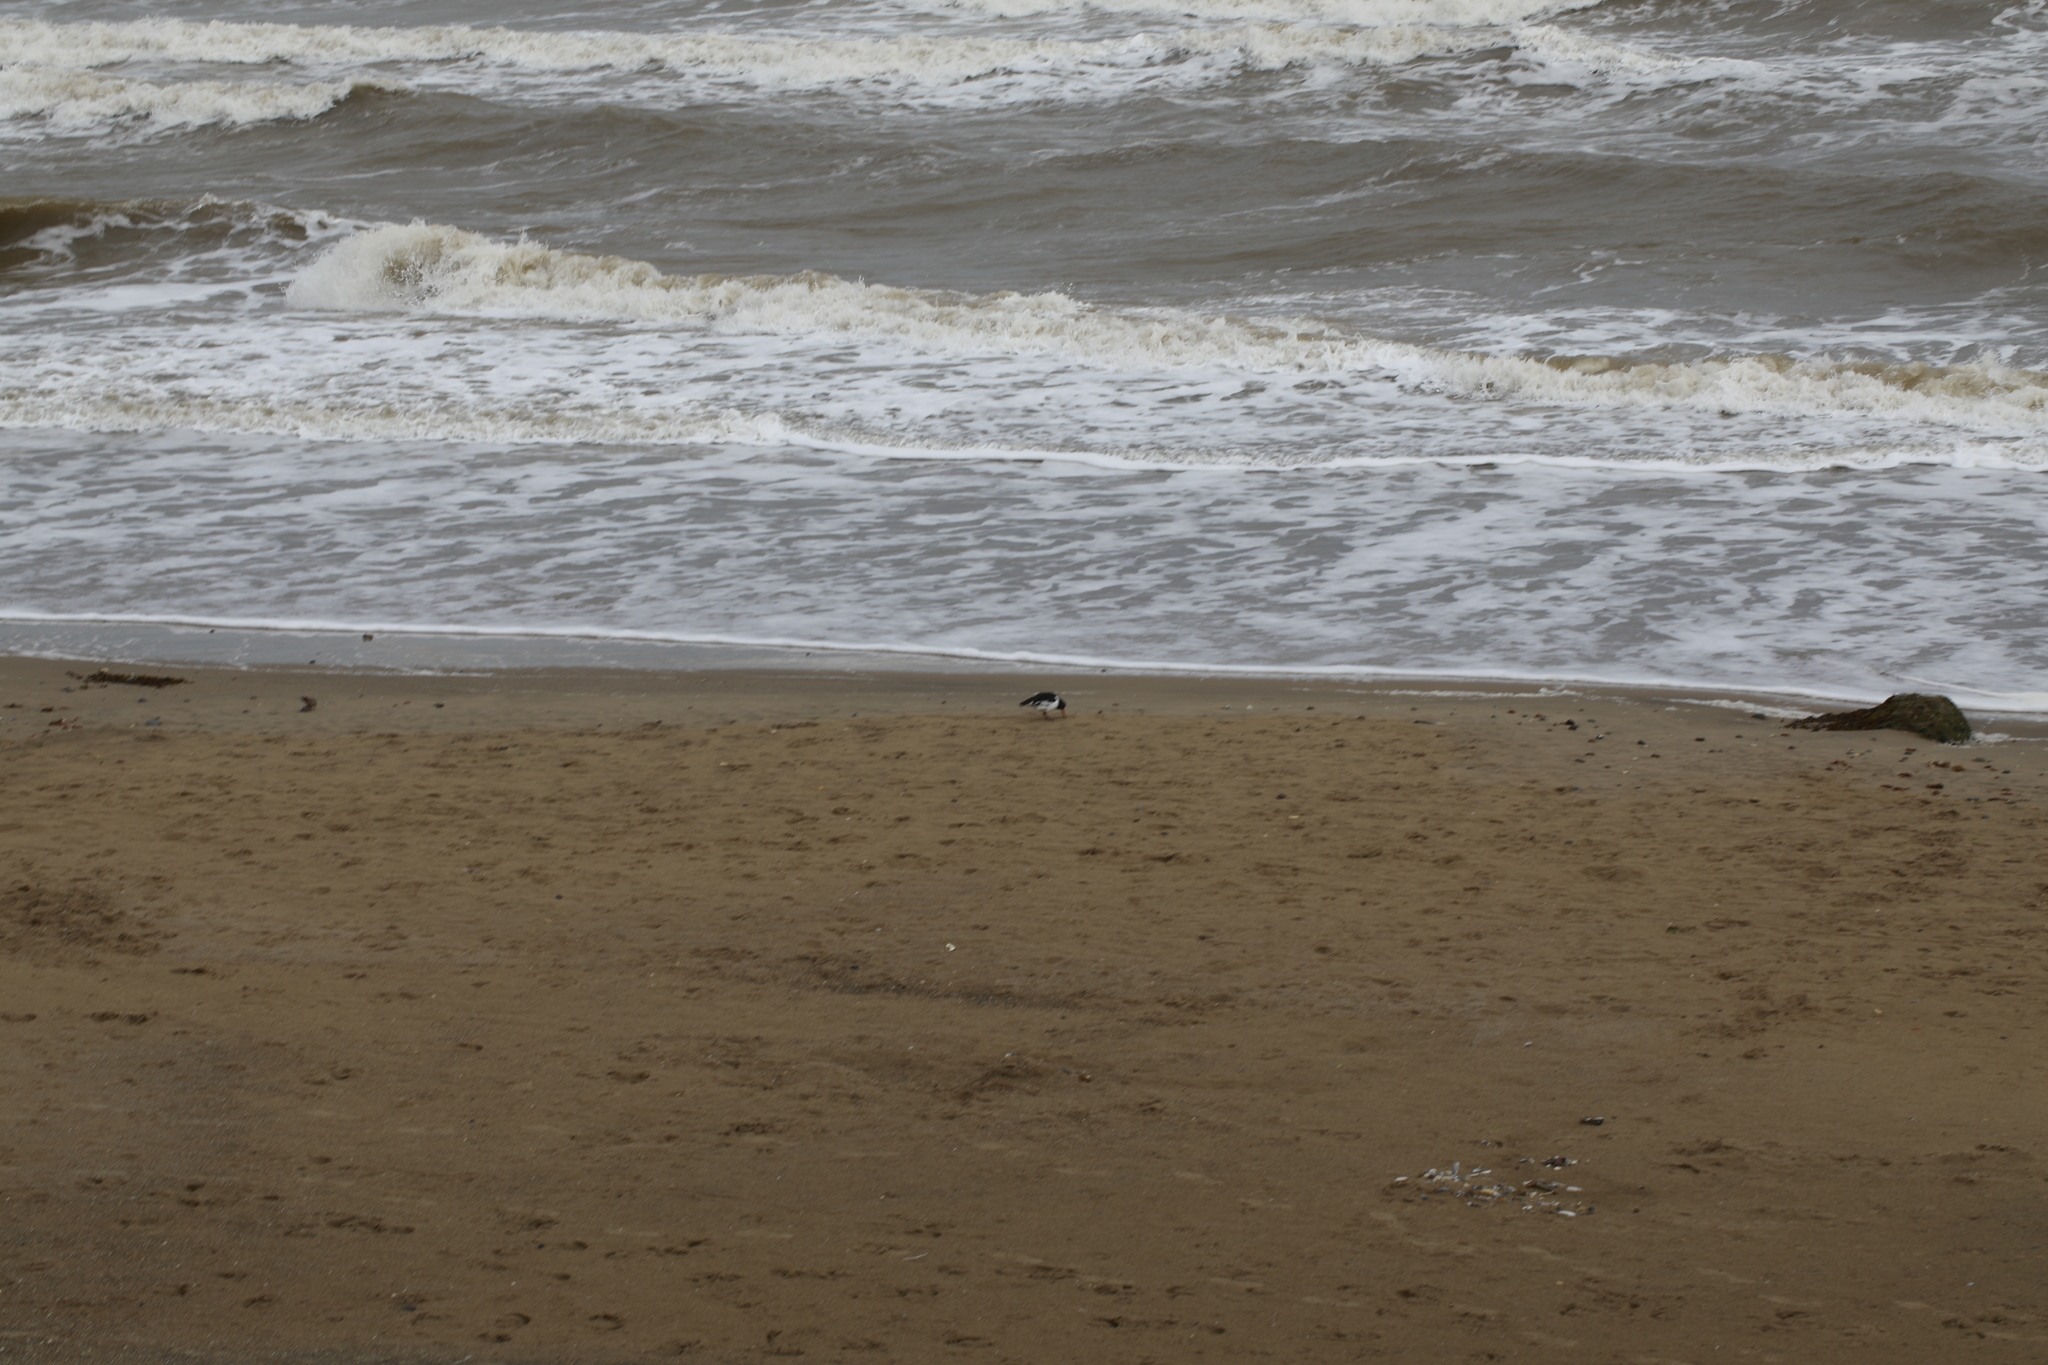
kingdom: Animalia
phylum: Chordata
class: Aves
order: Charadriiformes
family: Haematopodidae
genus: Haematopus
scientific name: Haematopus ostralegus
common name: Eurasian oystercatcher
